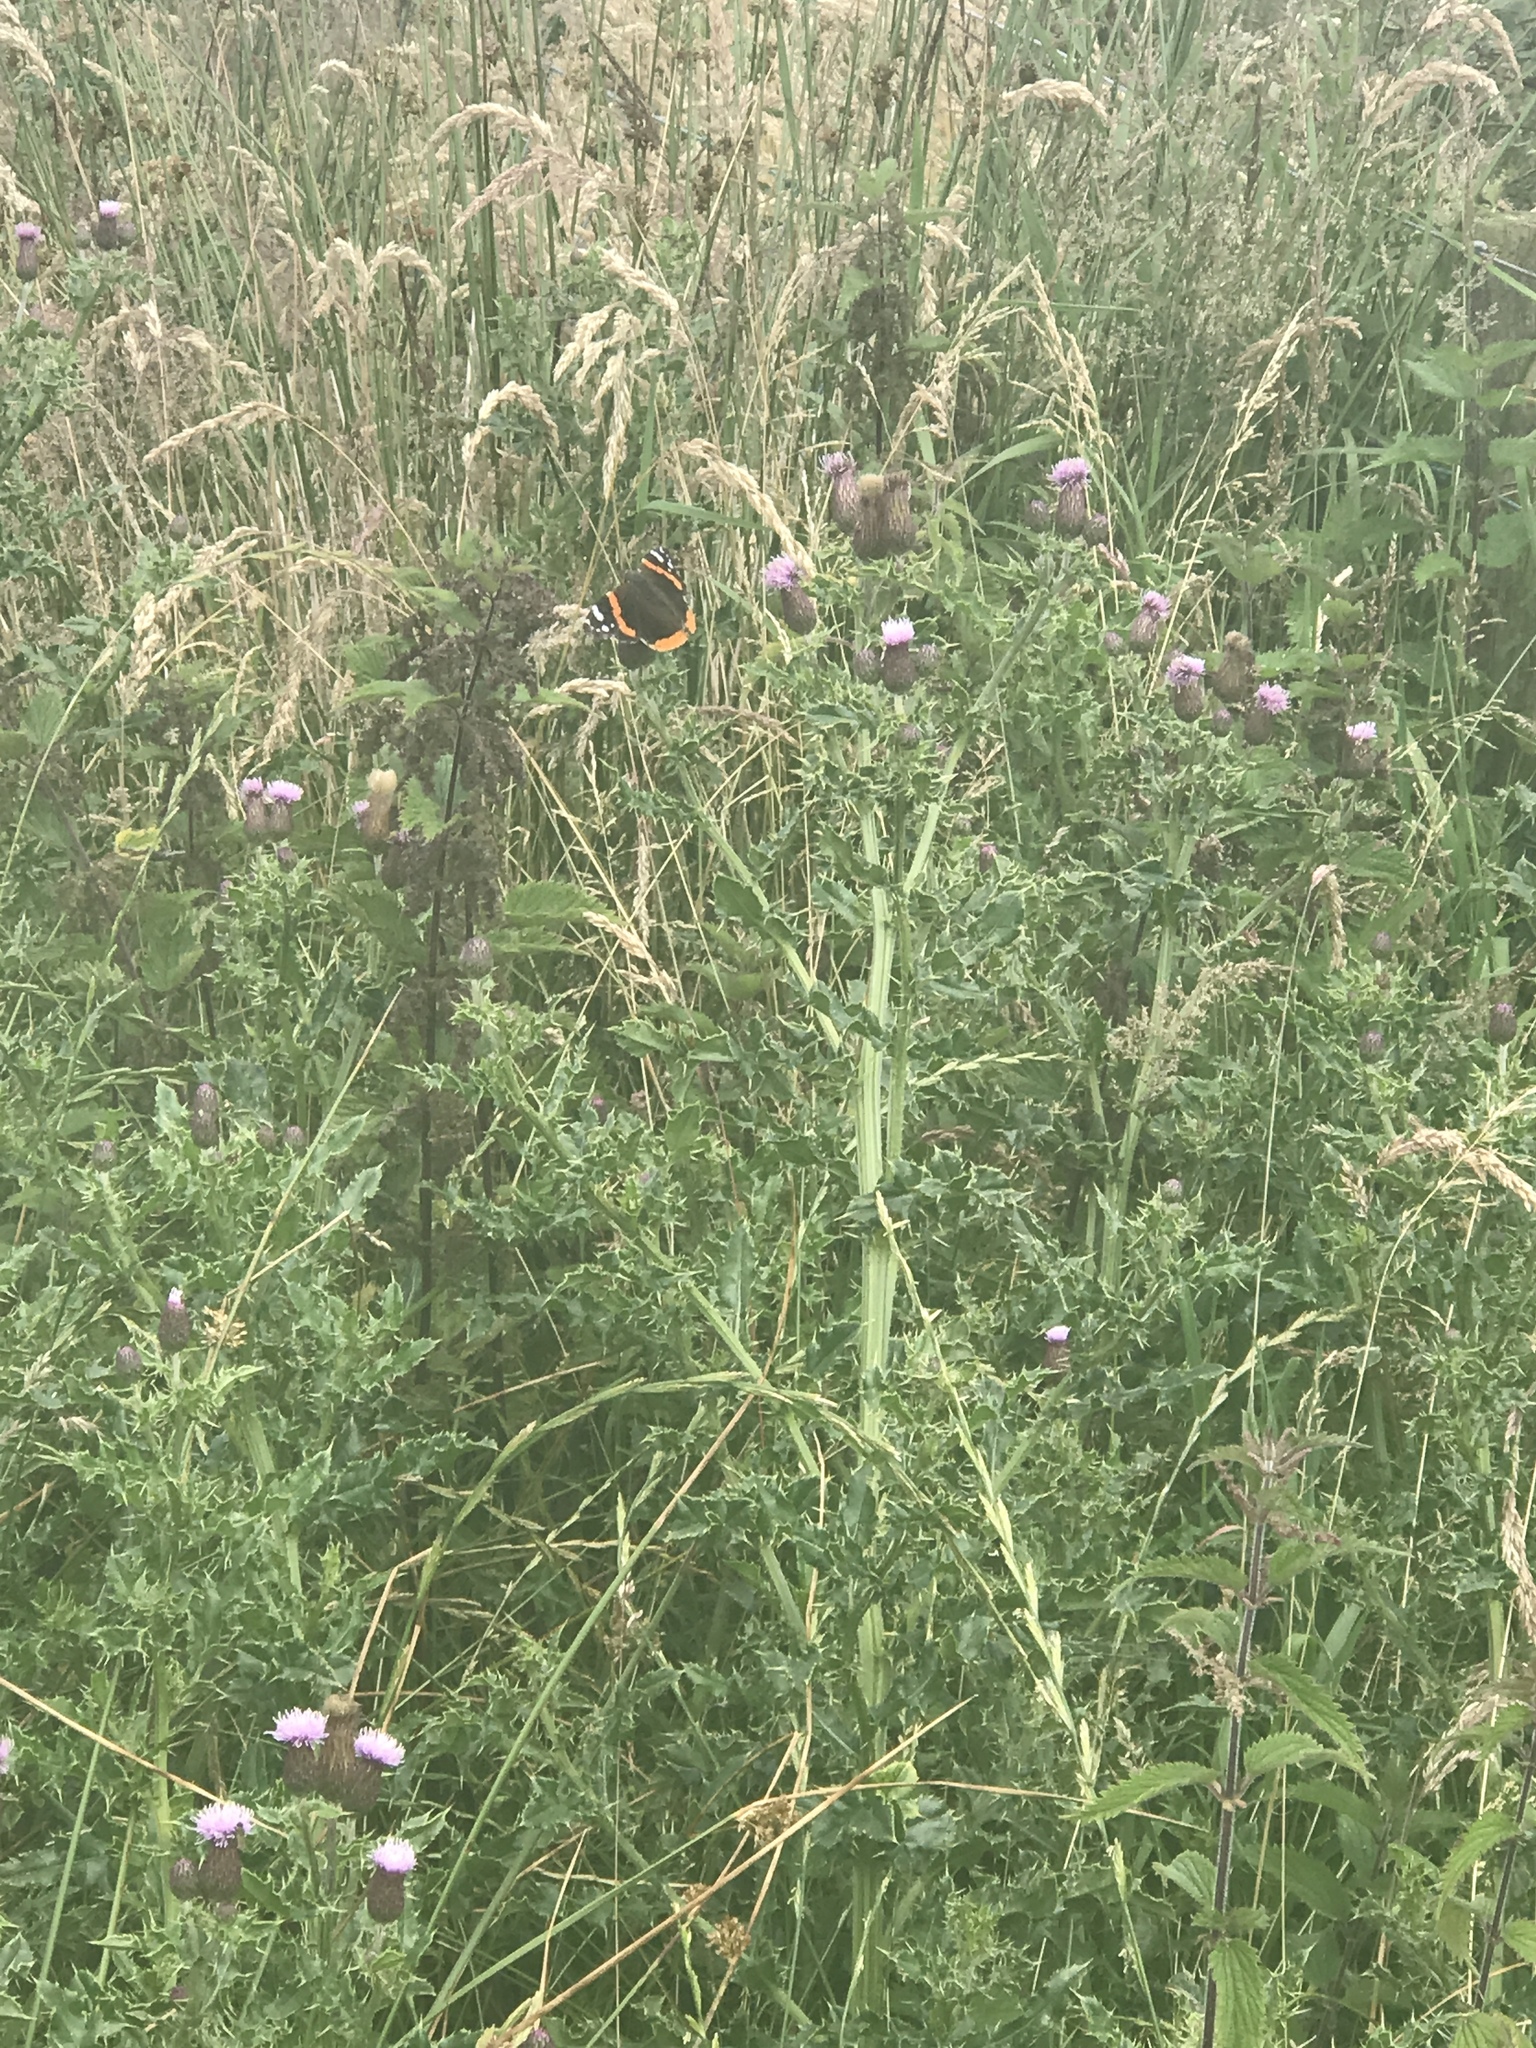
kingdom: Animalia
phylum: Arthropoda
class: Insecta
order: Lepidoptera
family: Nymphalidae
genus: Vanessa
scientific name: Vanessa atalanta
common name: Red admiral
